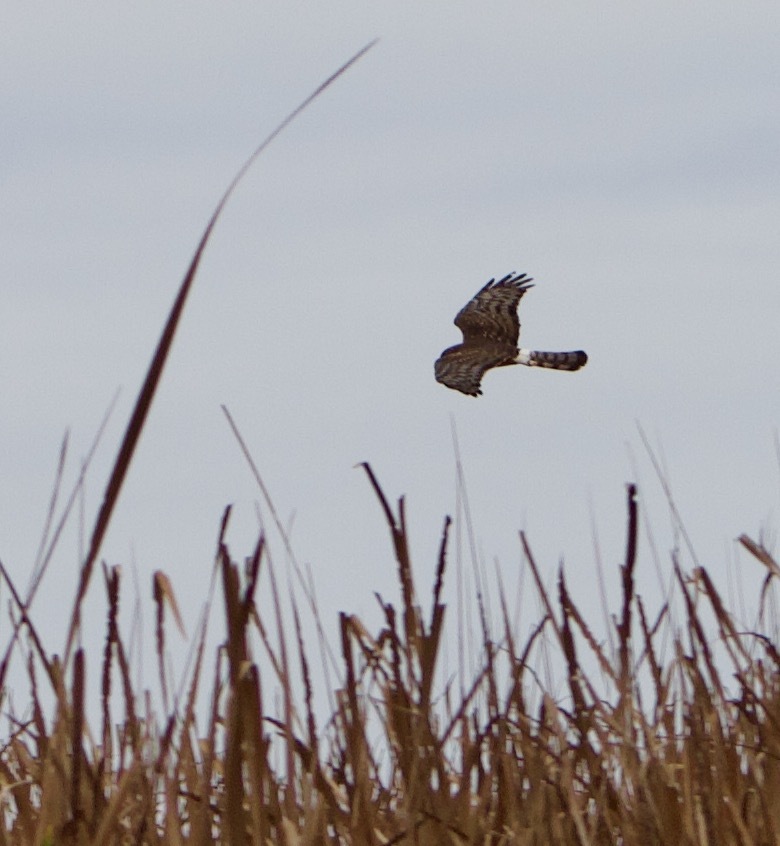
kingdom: Animalia
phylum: Chordata
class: Aves
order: Accipitriformes
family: Accipitridae
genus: Circus
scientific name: Circus cinereus
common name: Cinereous harrier
